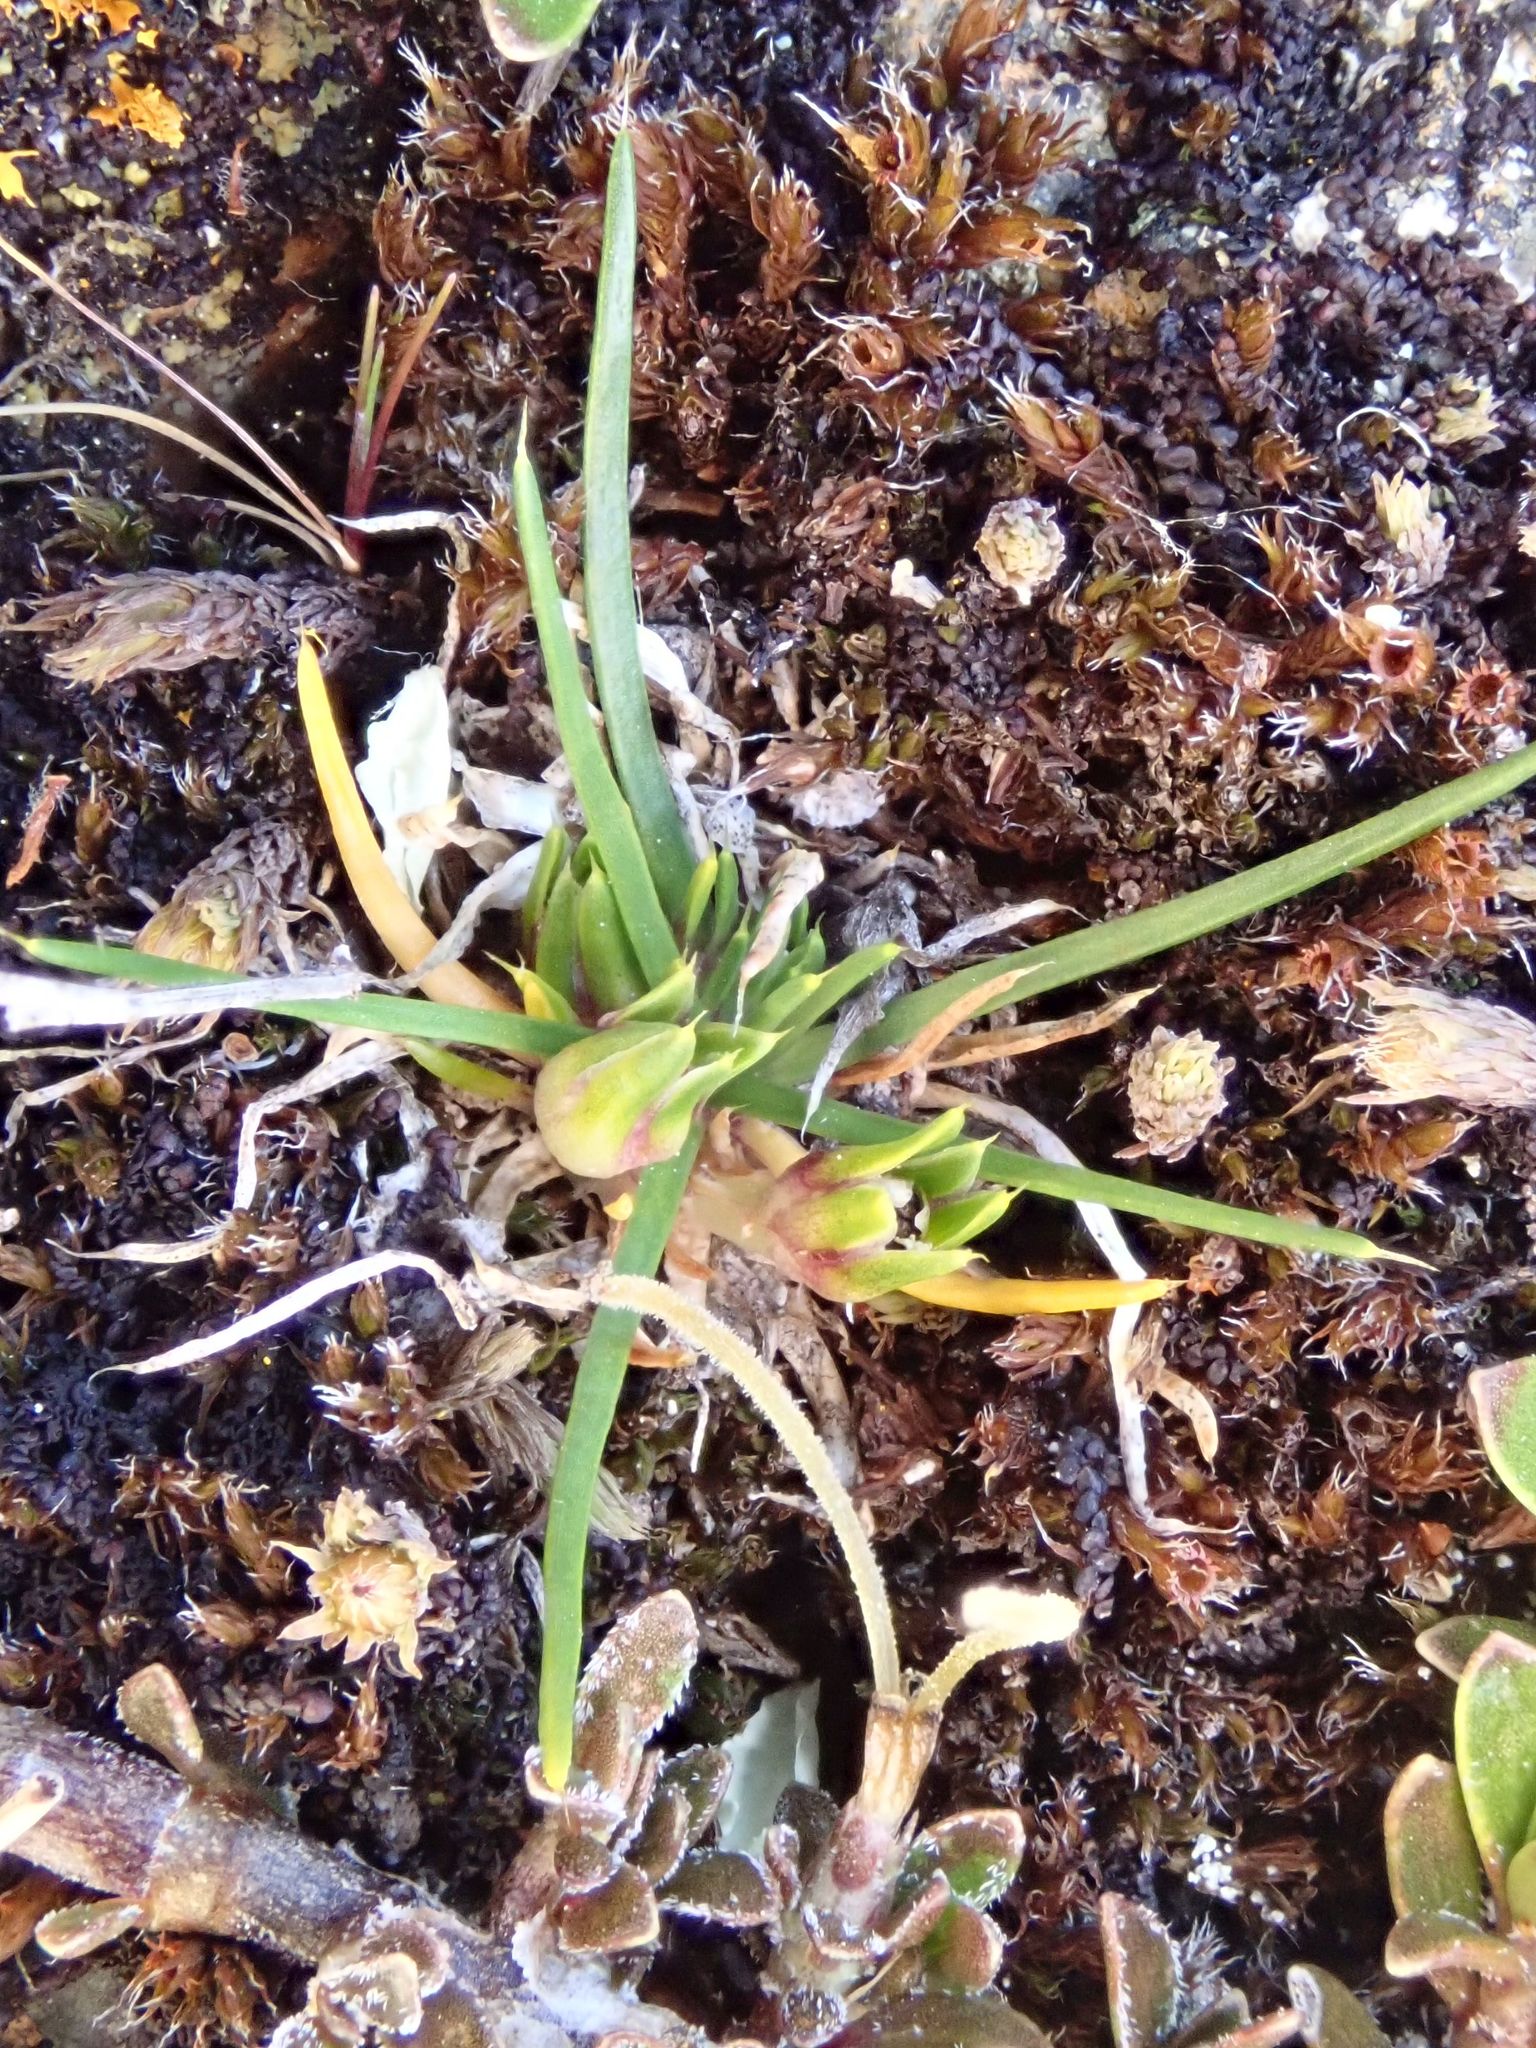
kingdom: Plantae
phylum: Tracheophyta
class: Magnoliopsida
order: Caryophyllales
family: Caryophyllaceae
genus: Colobanthus
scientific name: Colobanthus strictus
